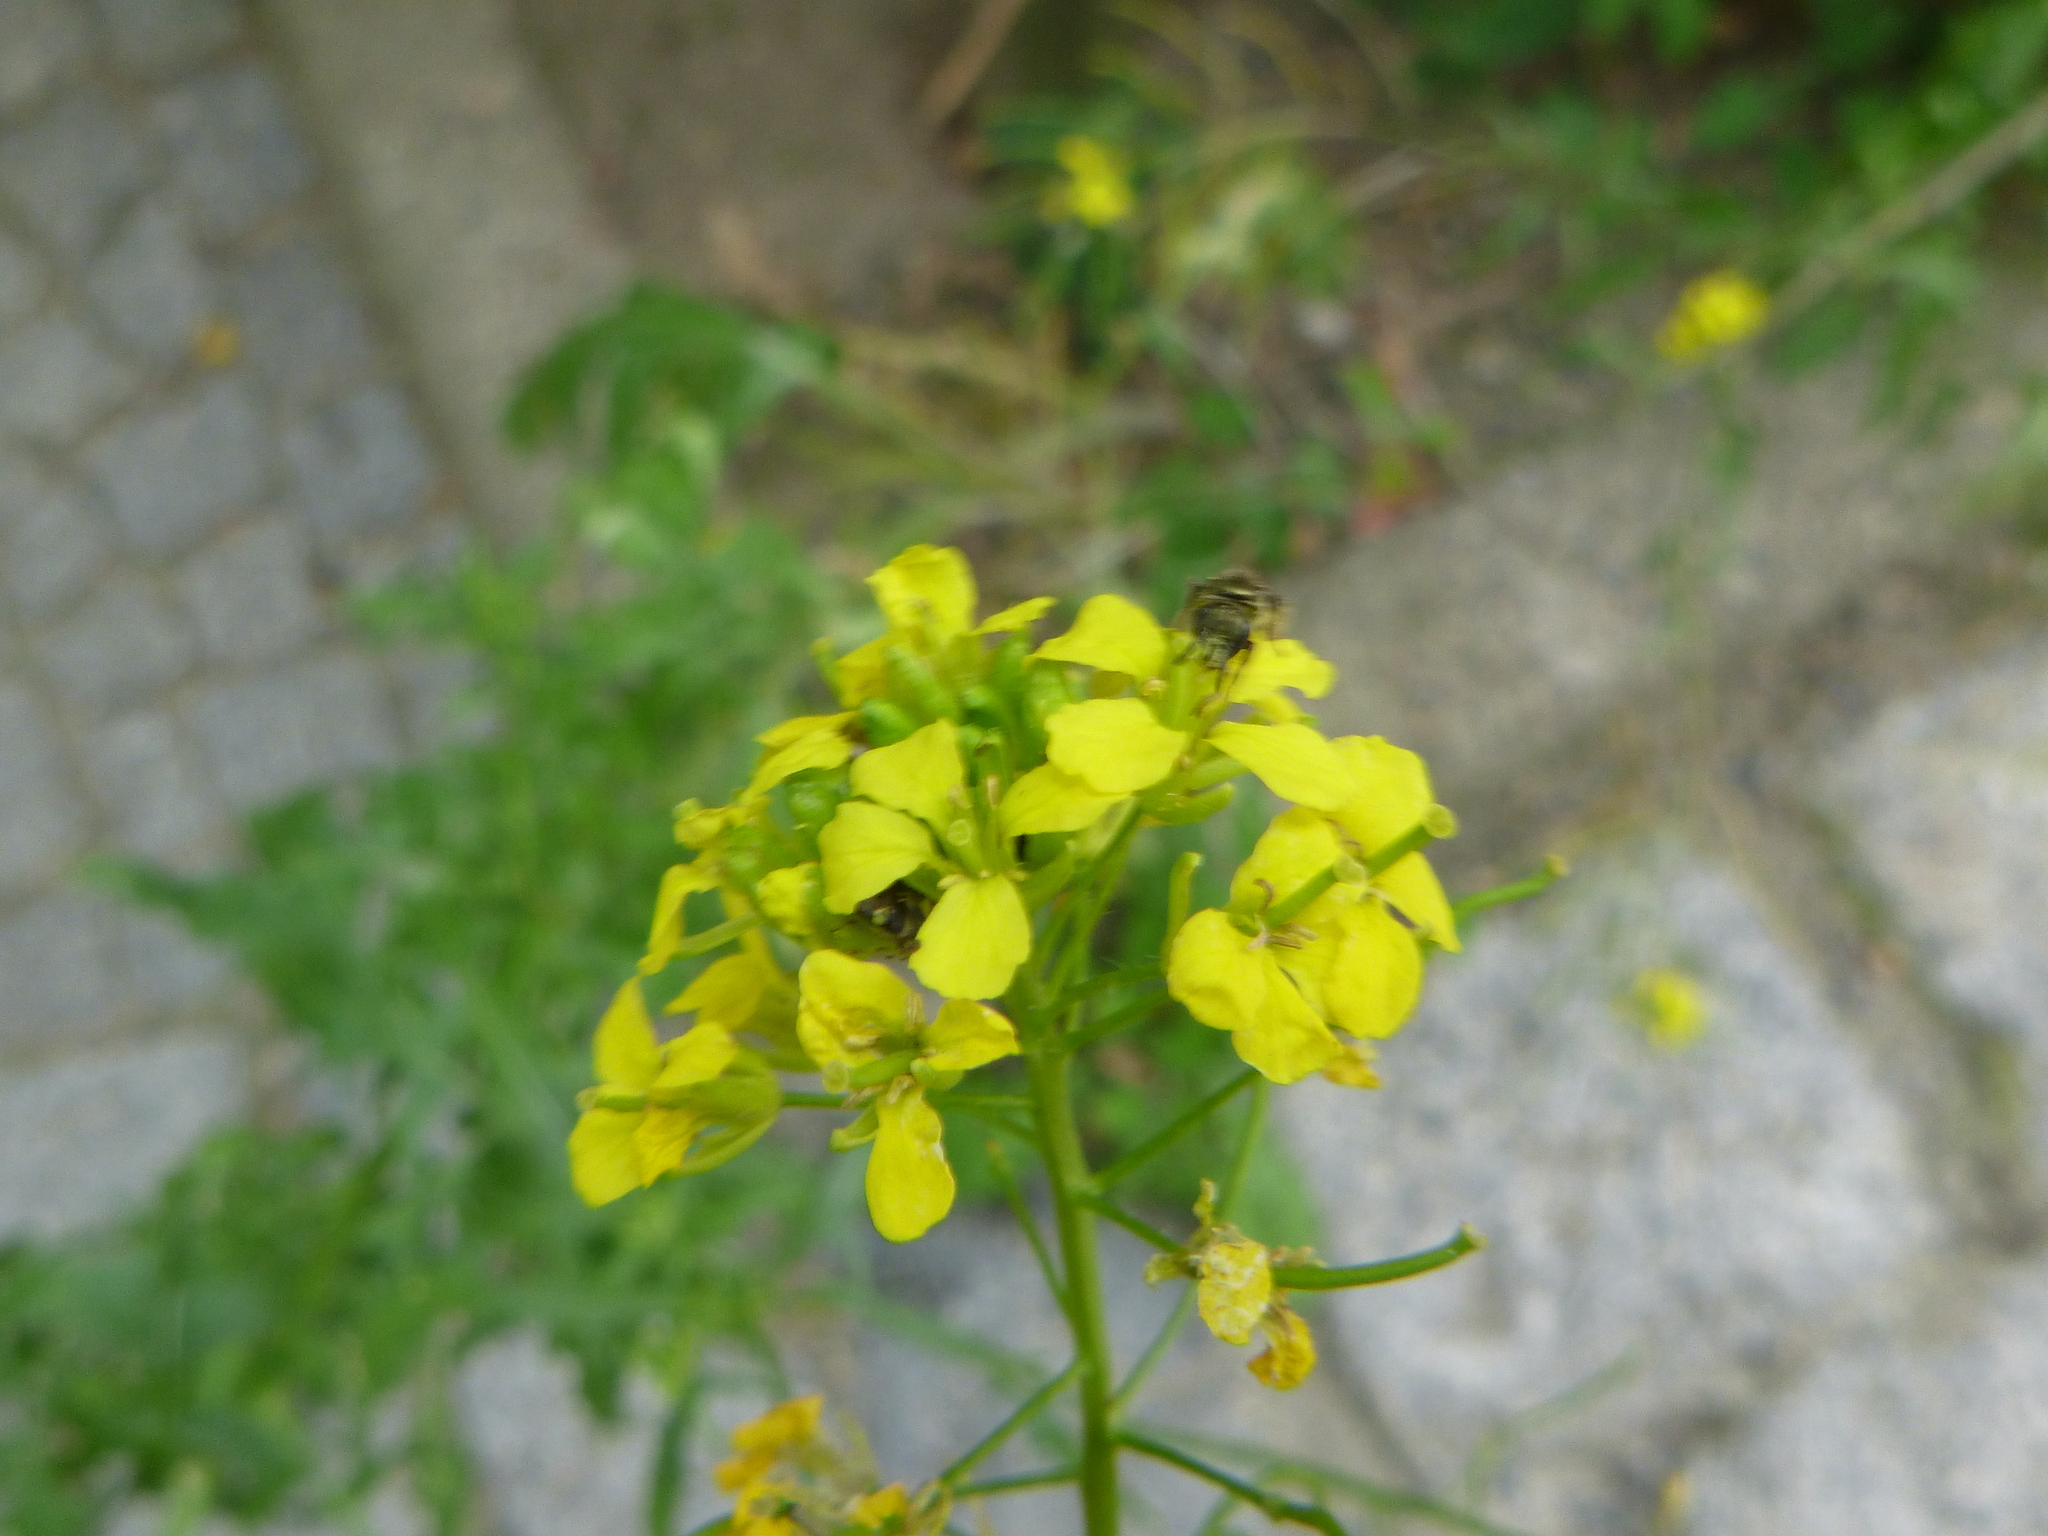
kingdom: Plantae
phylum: Tracheophyta
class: Magnoliopsida
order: Brassicales
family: Brassicaceae
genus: Brassica
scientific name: Brassica rapa
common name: Field mustard
